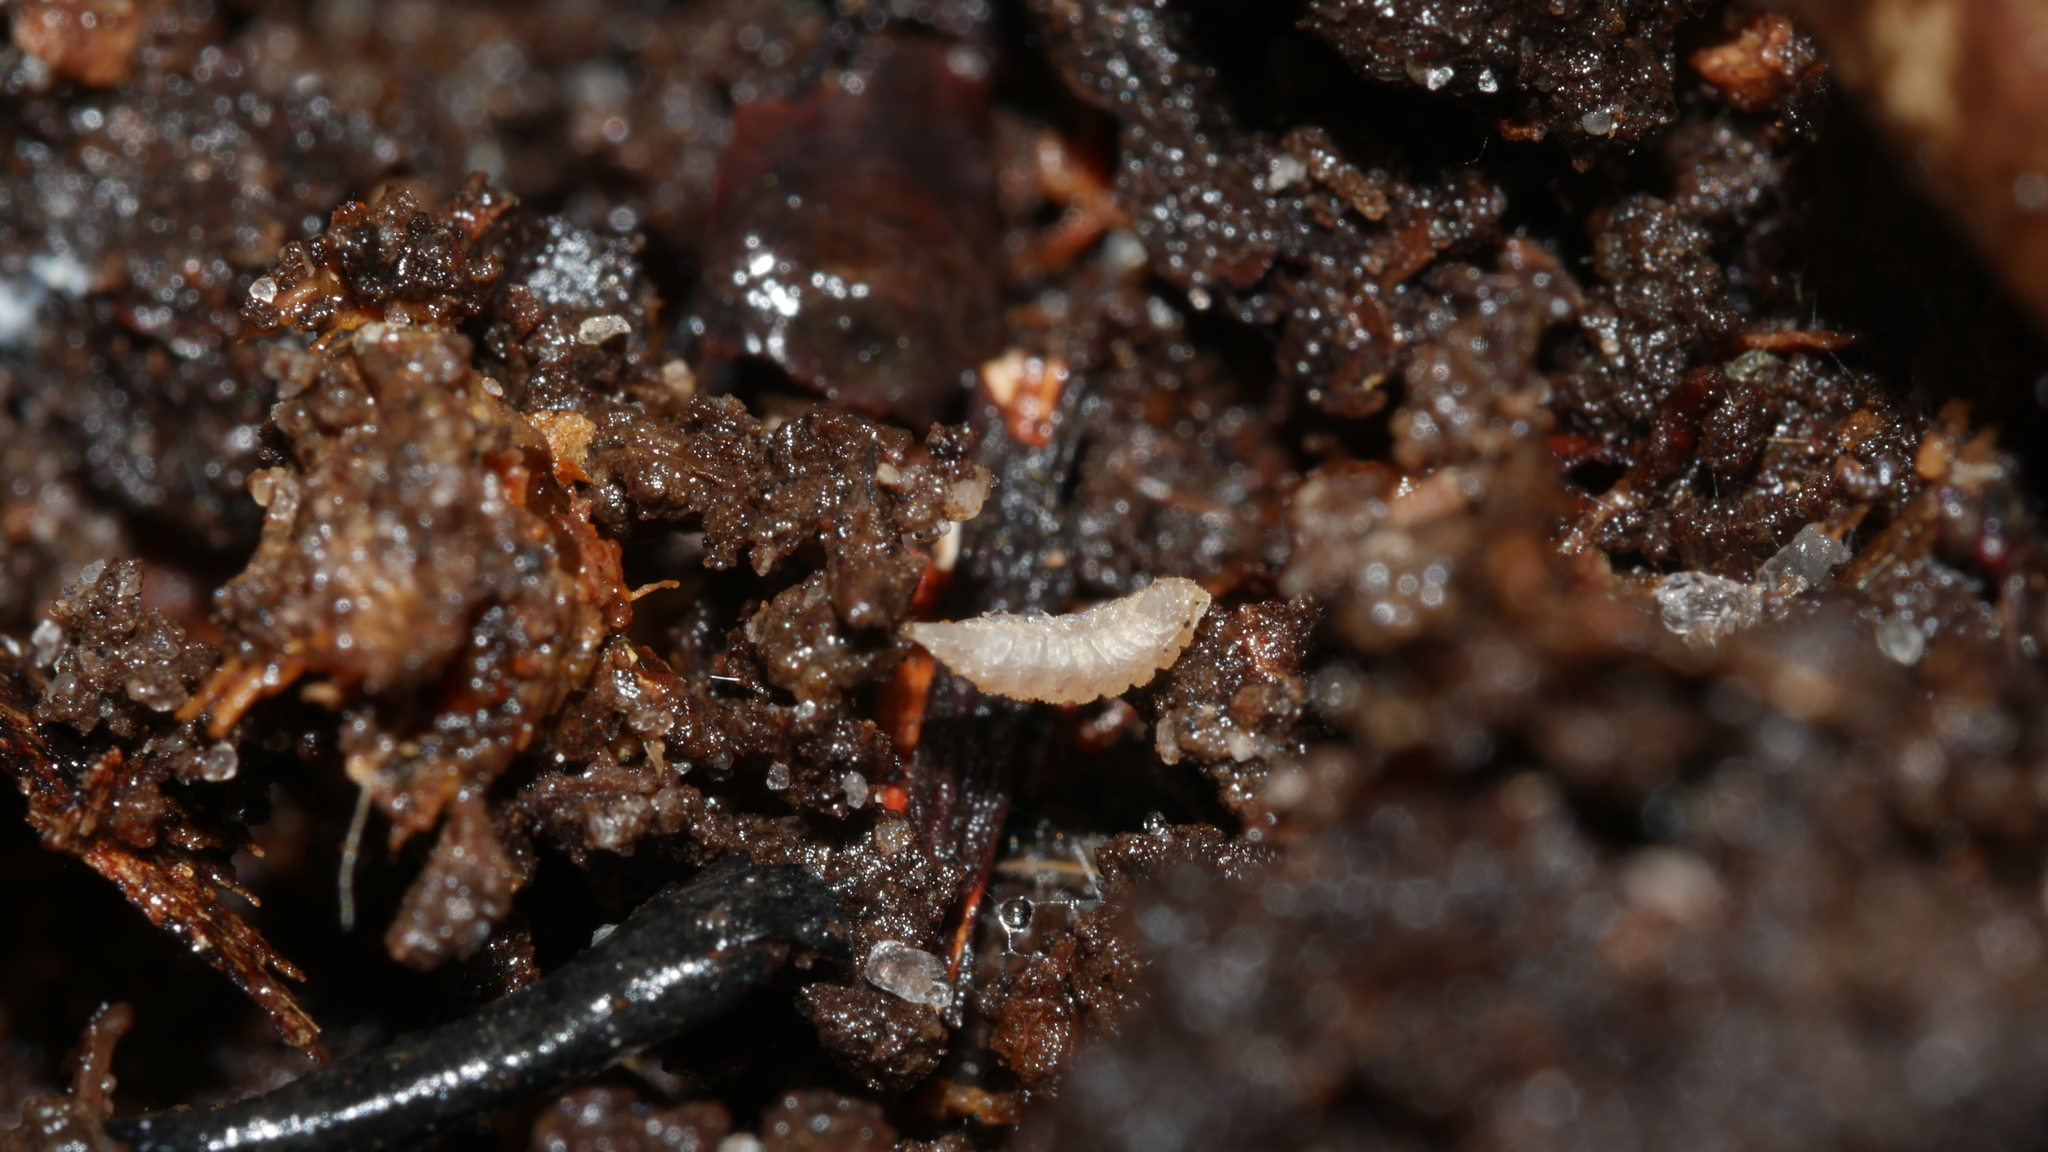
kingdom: Animalia
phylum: Arthropoda
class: Malacostraca
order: Isopoda
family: Trichoniscidae
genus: Haplophthalmus
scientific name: Haplophthalmus danicus
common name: Pillbug
